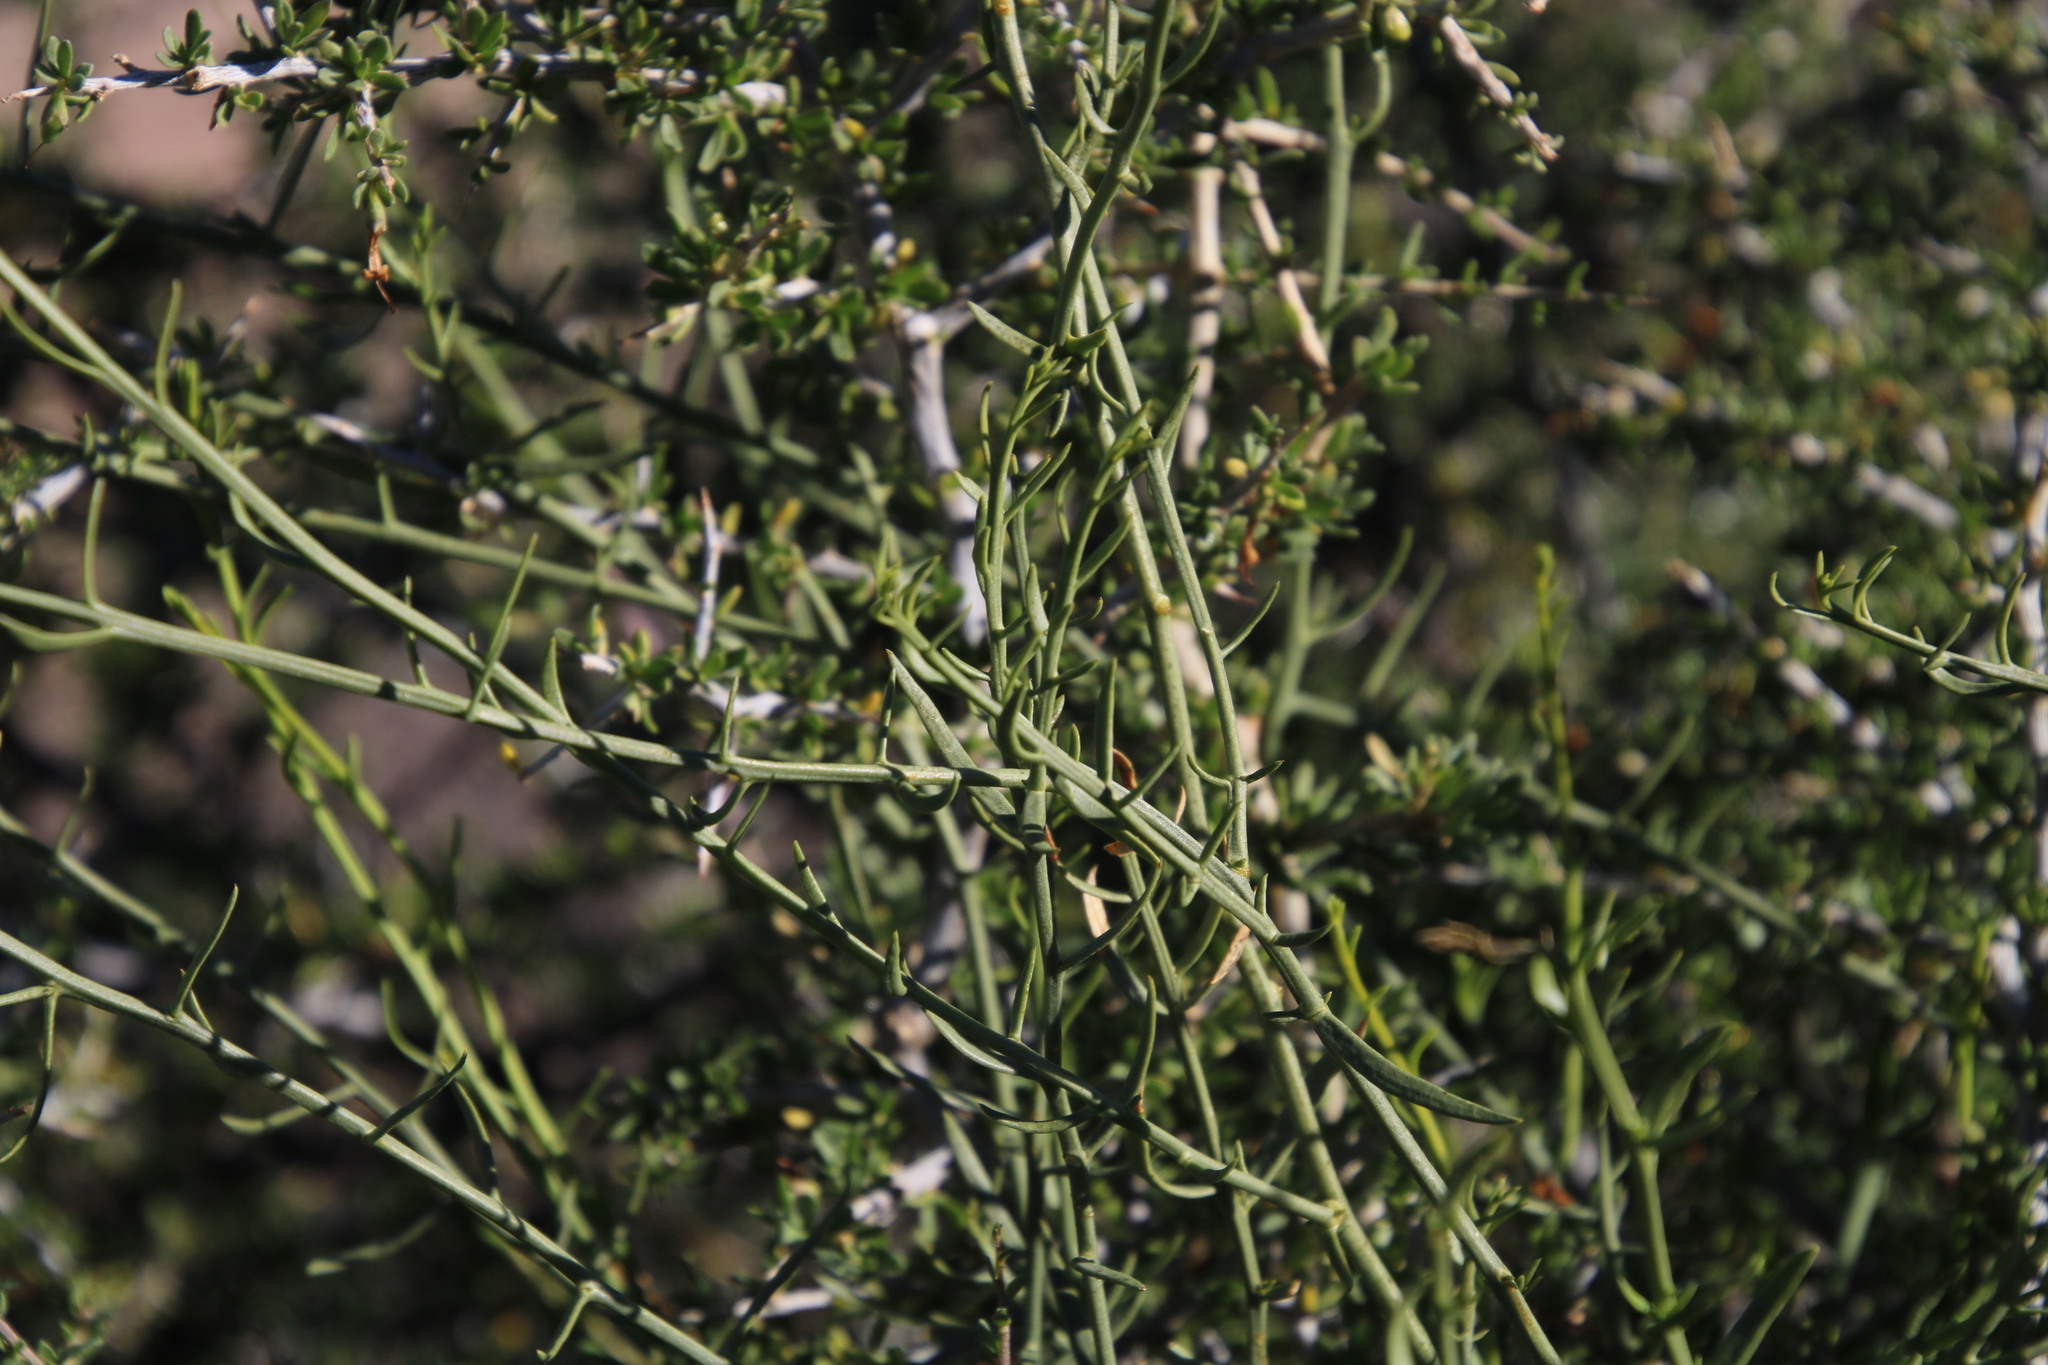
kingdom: Plantae
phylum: Tracheophyta
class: Magnoliopsida
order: Santalales
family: Thesiaceae
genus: Thesium
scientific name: Thesium triflorum
